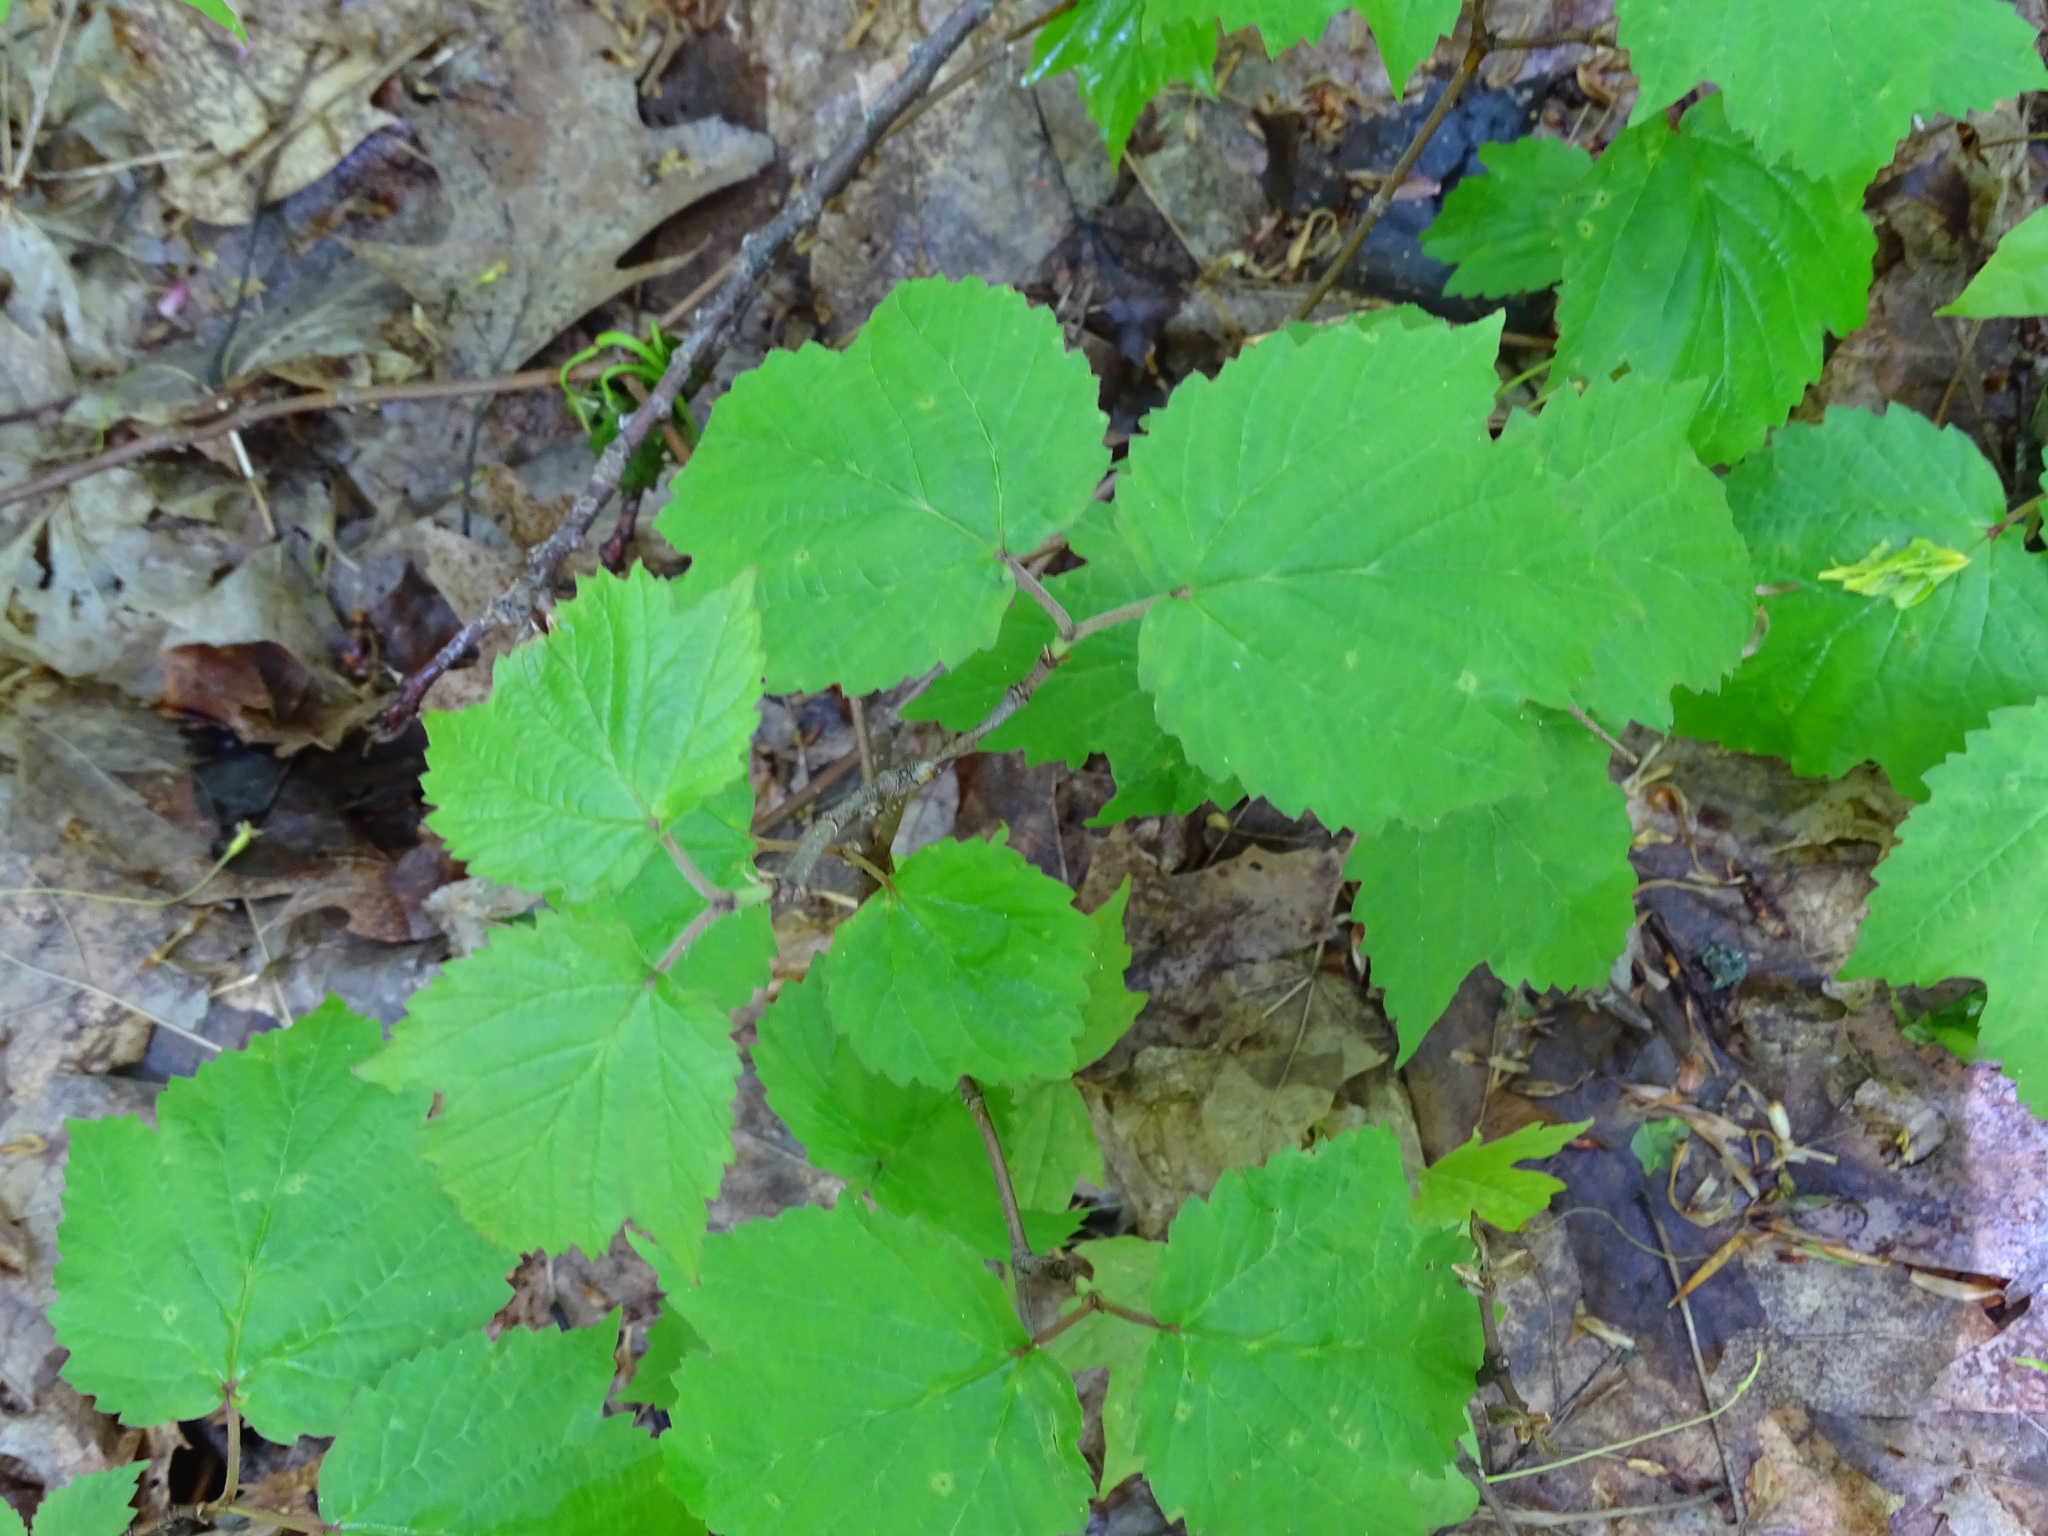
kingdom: Plantae
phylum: Tracheophyta
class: Magnoliopsida
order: Dipsacales
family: Viburnaceae
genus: Viburnum
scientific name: Viburnum acerifolium
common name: Dockmackie
